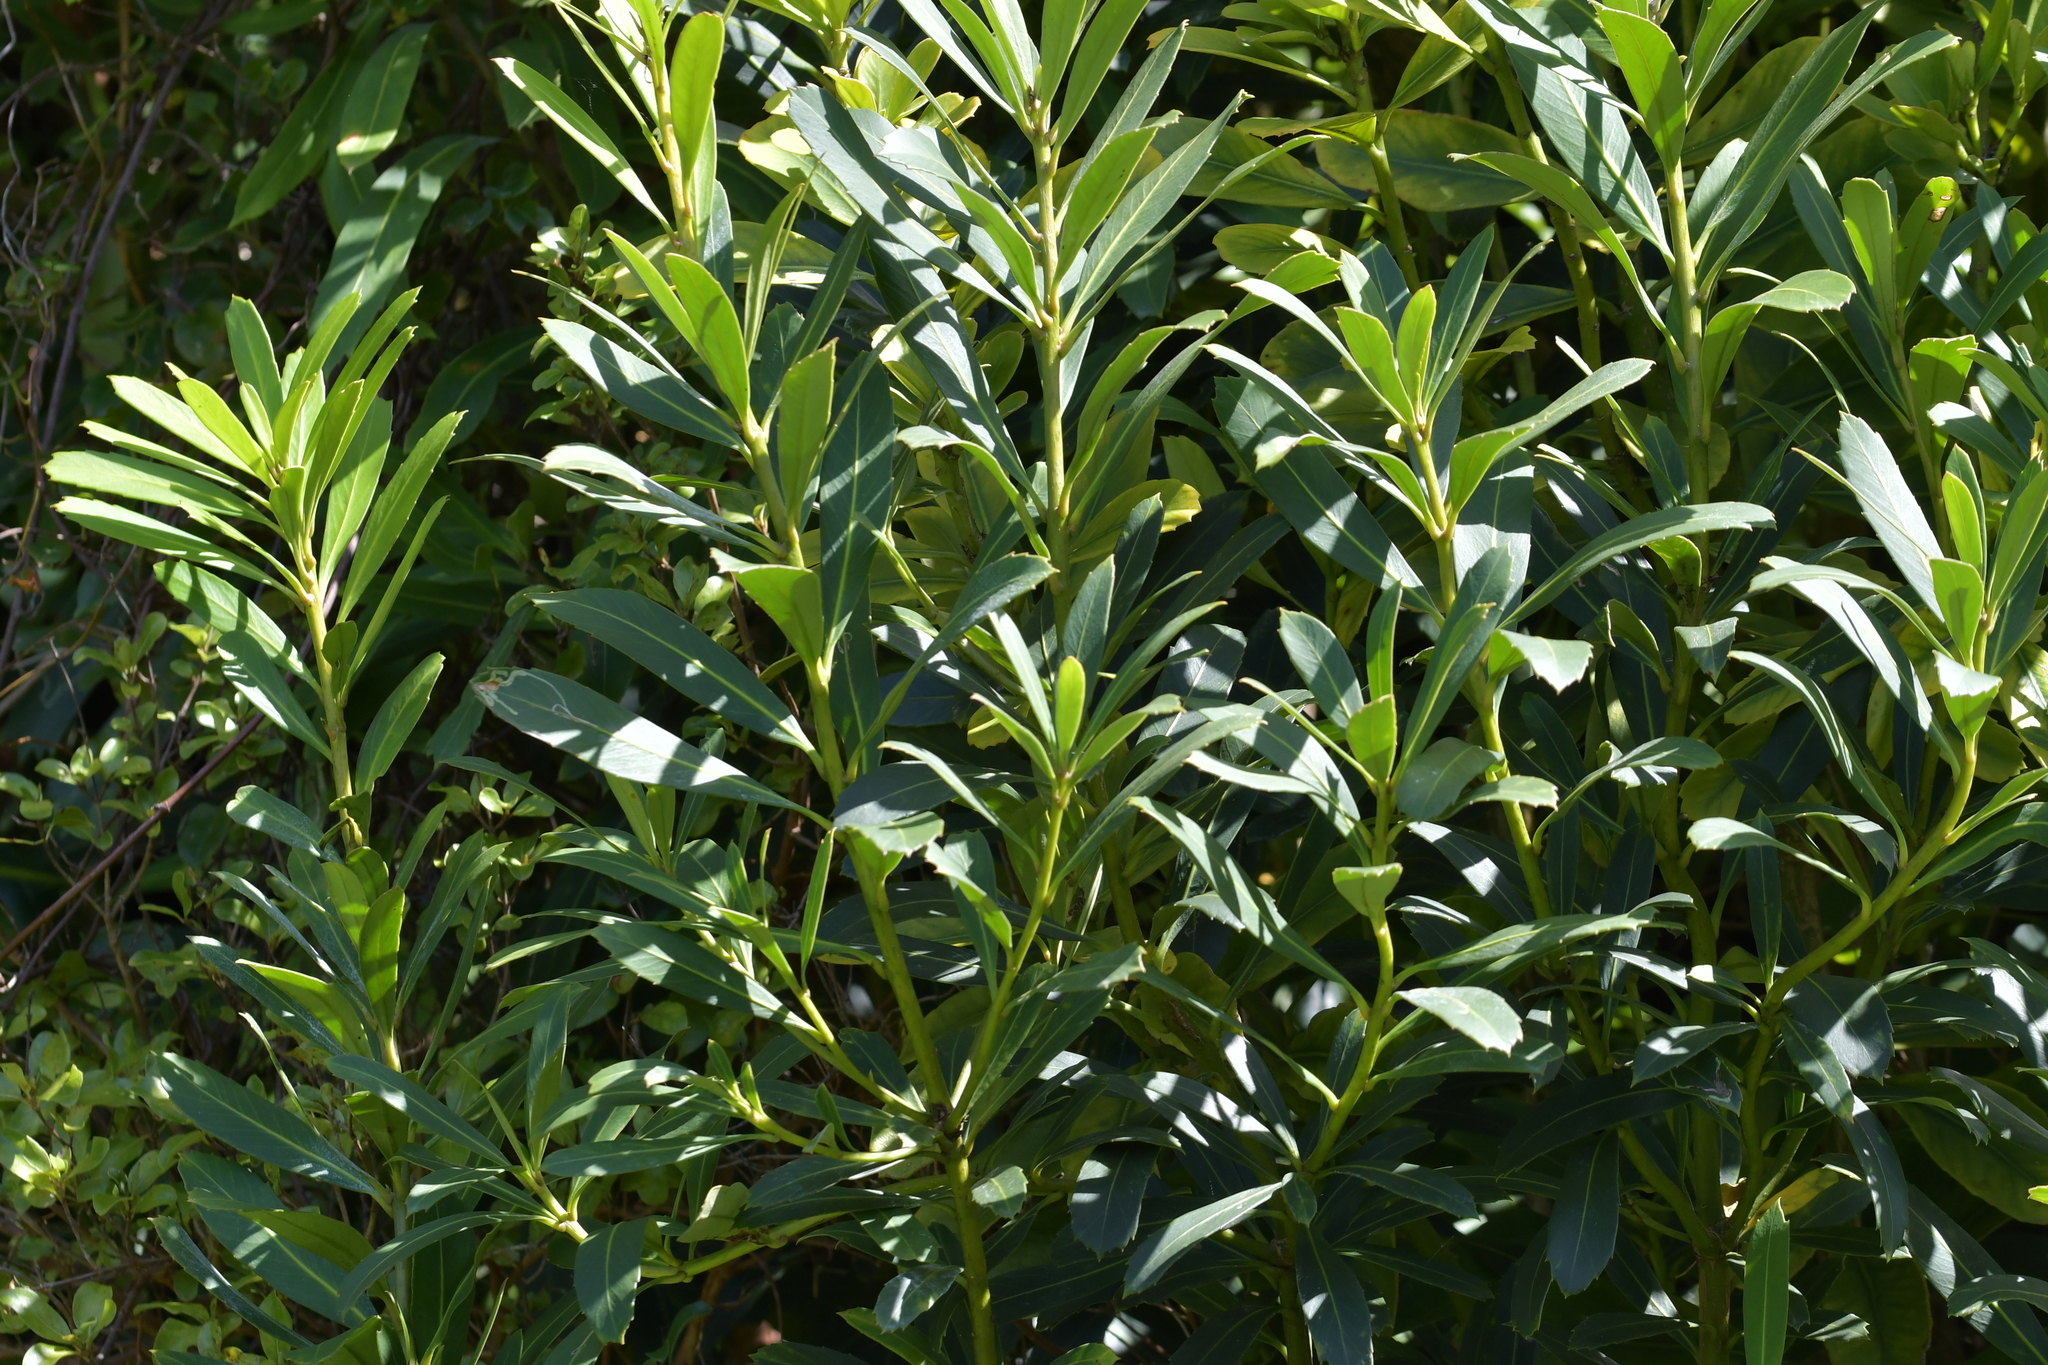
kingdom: Plantae
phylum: Tracheophyta
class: Magnoliopsida
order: Apiales
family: Araliaceae
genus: Pseudopanax
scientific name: Pseudopanax chathamicus
